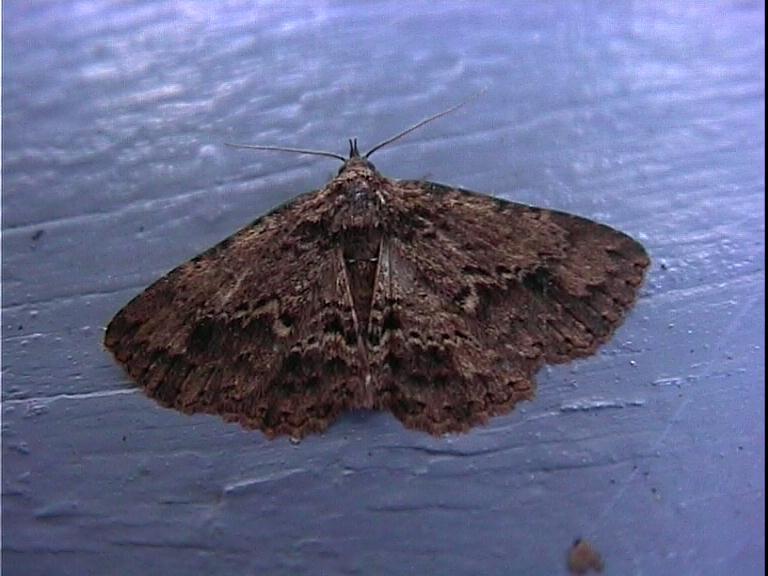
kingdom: Animalia
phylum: Arthropoda
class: Insecta
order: Lepidoptera
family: Erebidae
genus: Artigisa
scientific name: Artigisa melanephele
